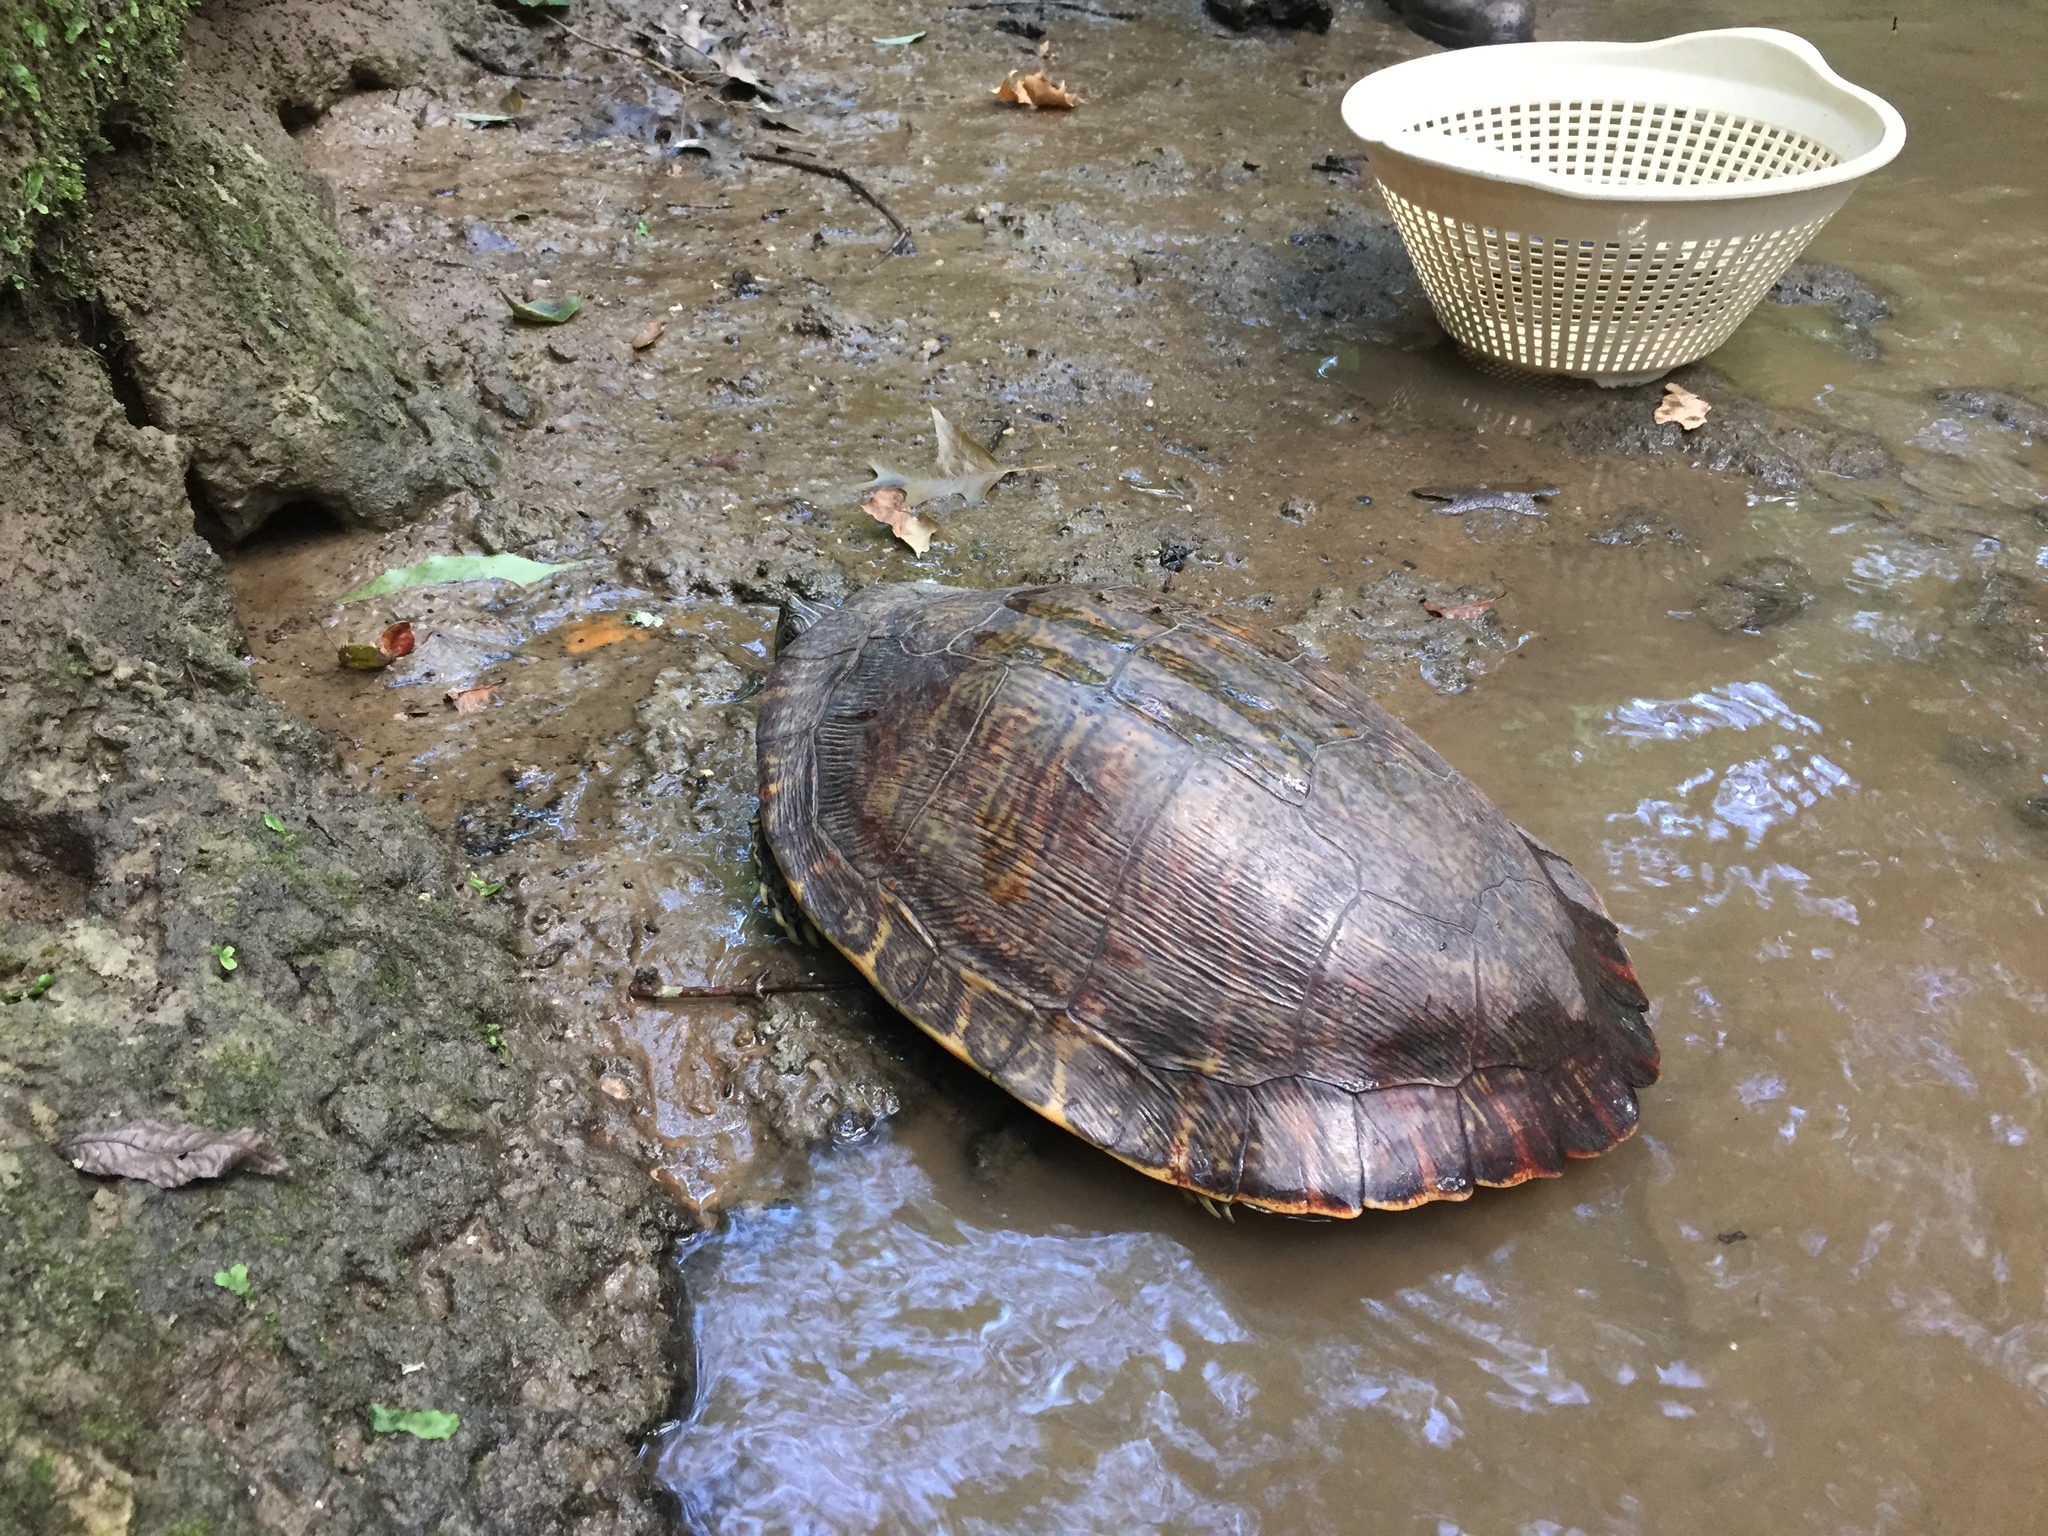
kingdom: Animalia
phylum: Chordata
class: Testudines
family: Emydidae
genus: Pseudemys
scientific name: Pseudemys concinna
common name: Eastern river cooter
